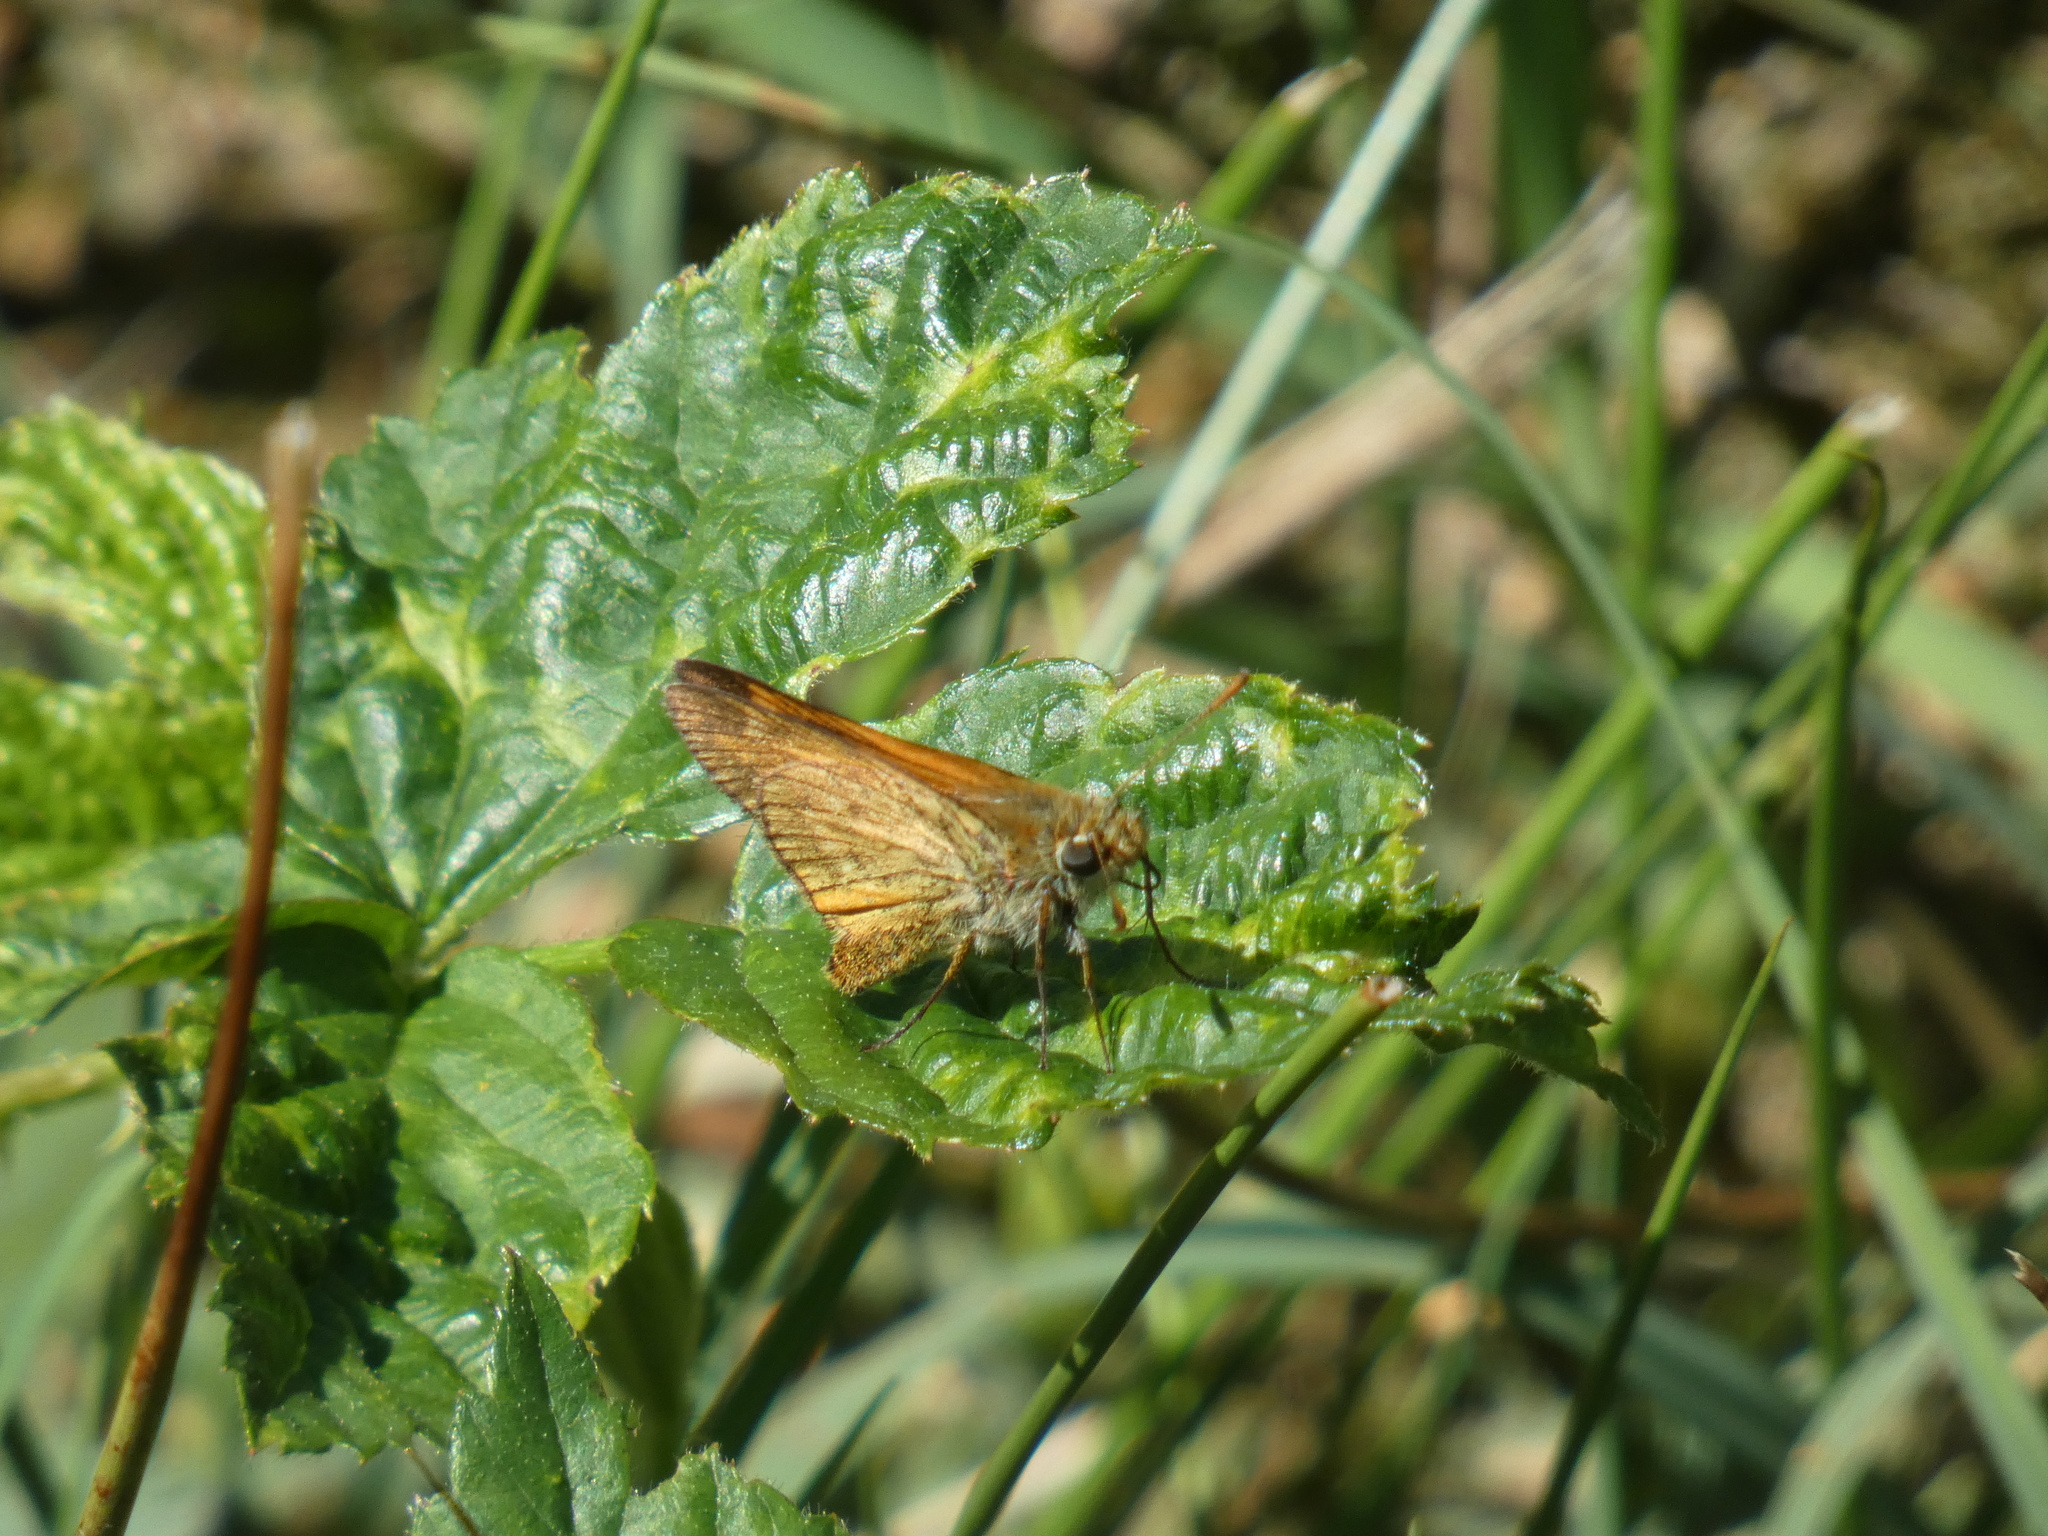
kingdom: Animalia
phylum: Arthropoda
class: Insecta
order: Lepidoptera
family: Hesperiidae
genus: Ochlodes
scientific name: Ochlodes venata
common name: Large skipper
